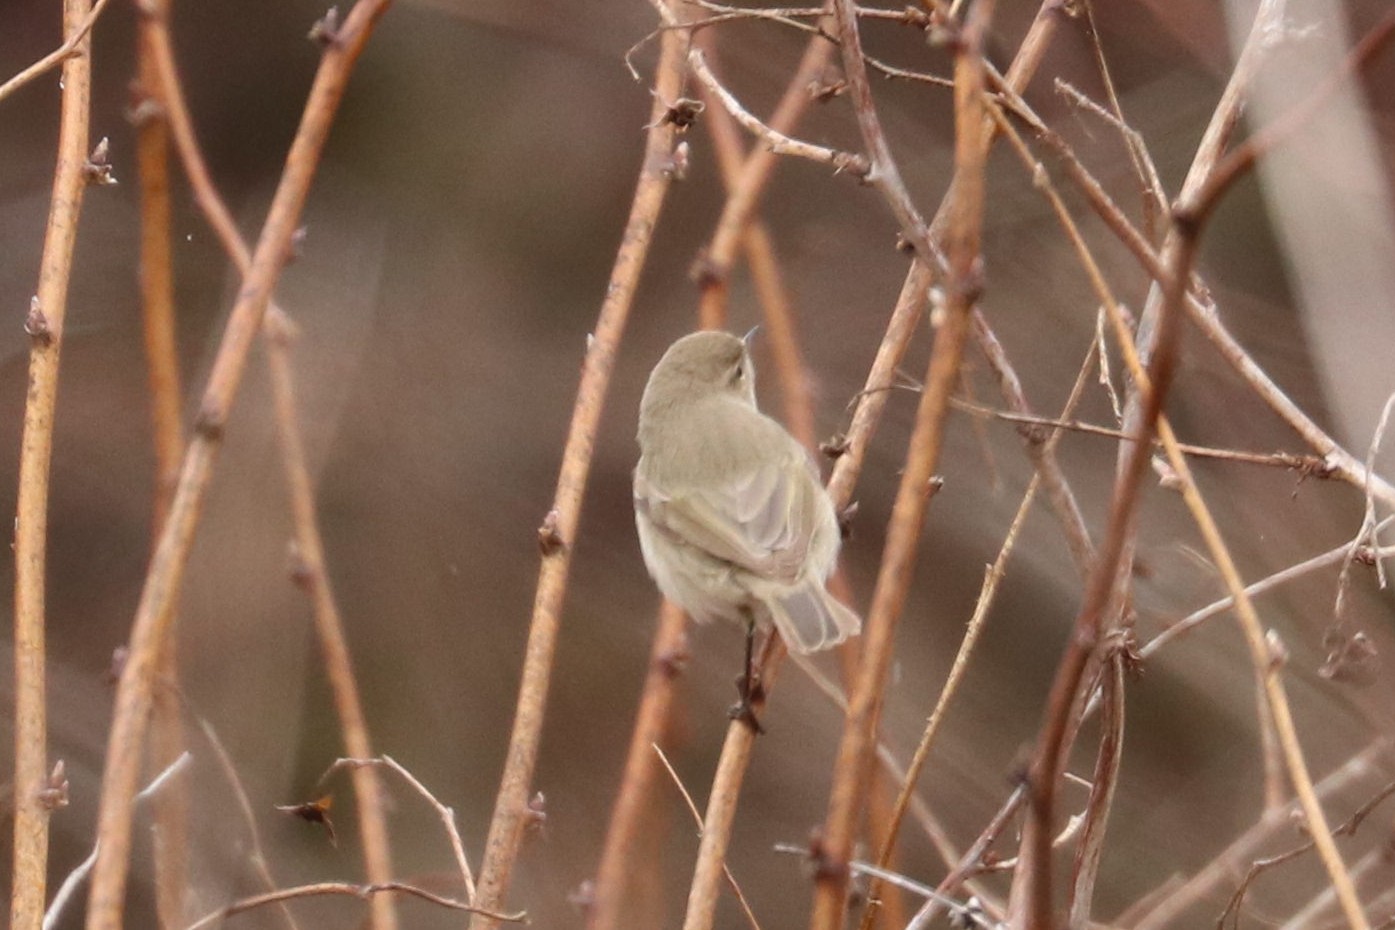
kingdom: Animalia
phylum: Chordata
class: Aves
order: Passeriformes
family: Phylloscopidae
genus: Phylloscopus
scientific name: Phylloscopus collybita
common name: Common chiffchaff
